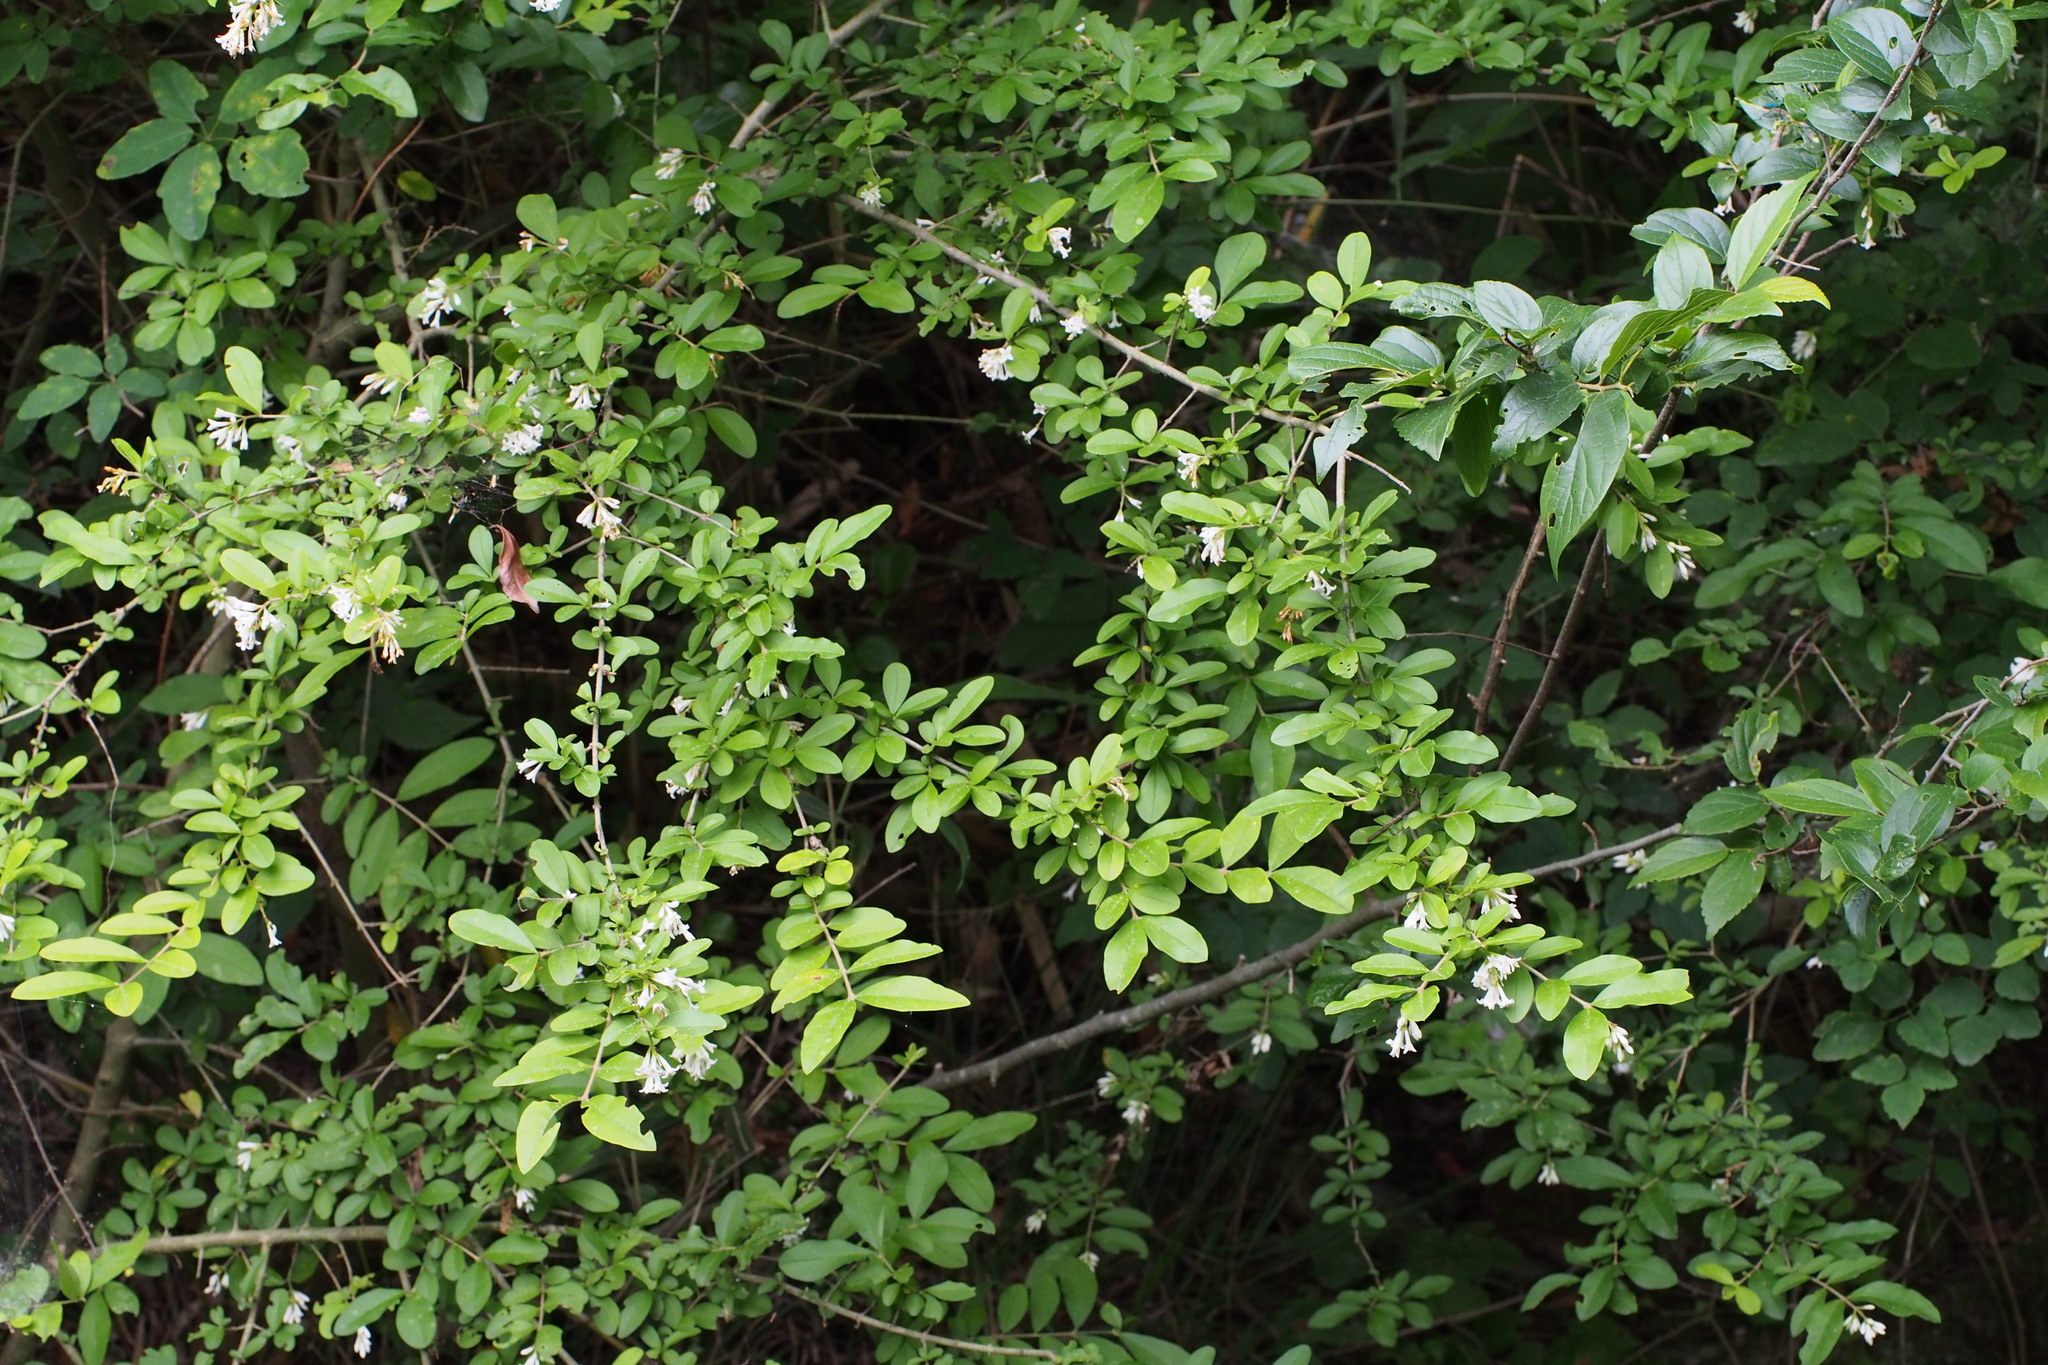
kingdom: Plantae
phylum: Tracheophyta
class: Magnoliopsida
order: Lamiales
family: Oleaceae
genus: Ligustrum
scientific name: Ligustrum obtusifolium
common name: Border privet
